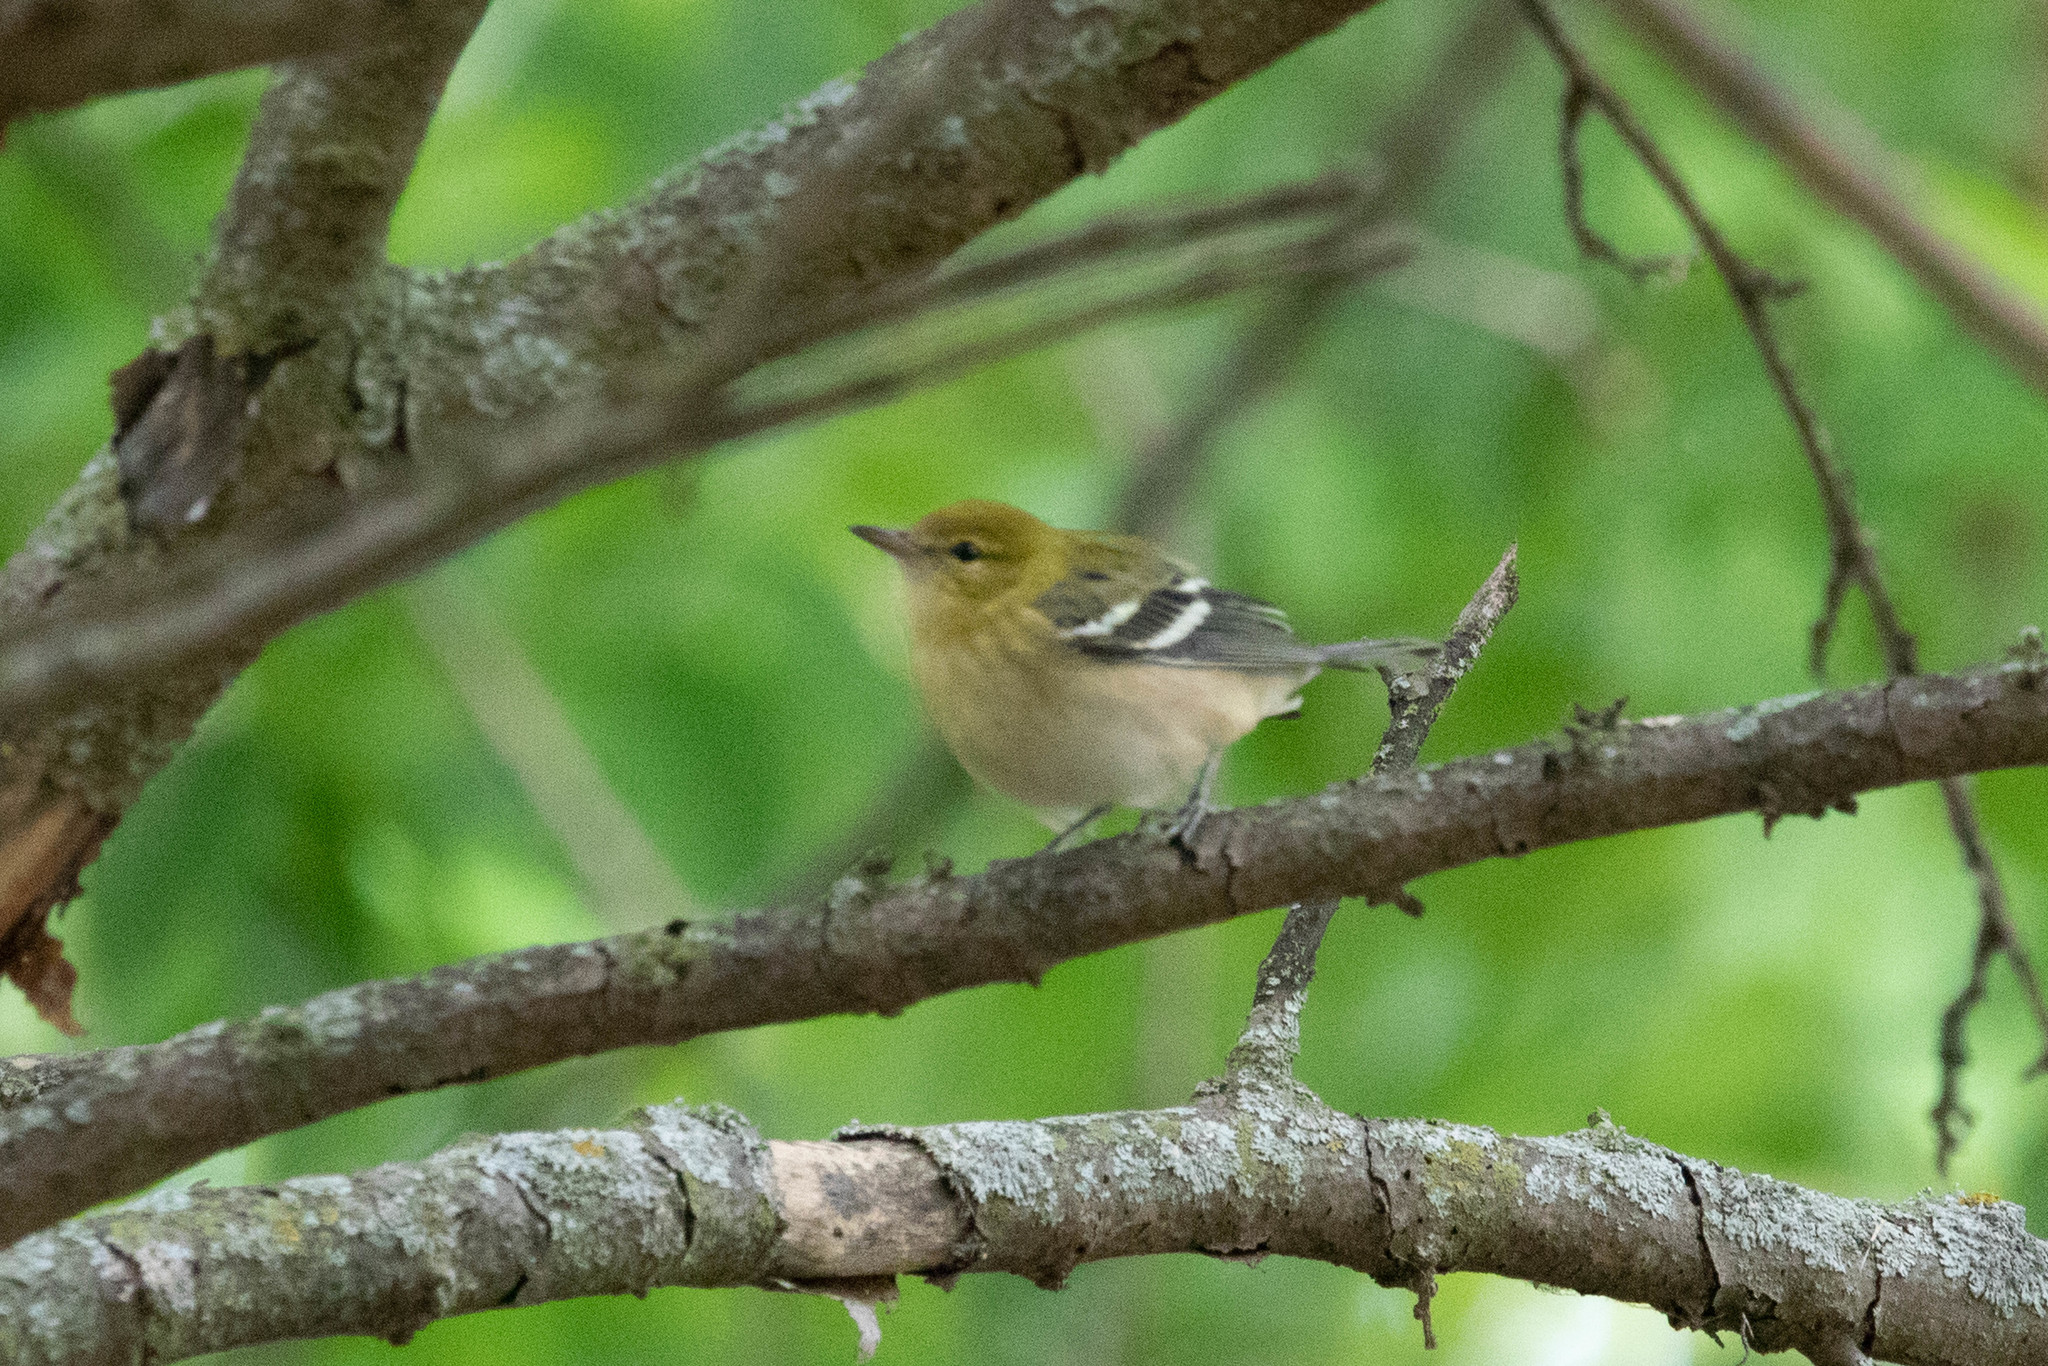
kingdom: Animalia
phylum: Chordata
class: Aves
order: Passeriformes
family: Parulidae
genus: Setophaga
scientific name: Setophaga castanea
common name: Bay-breasted warbler
